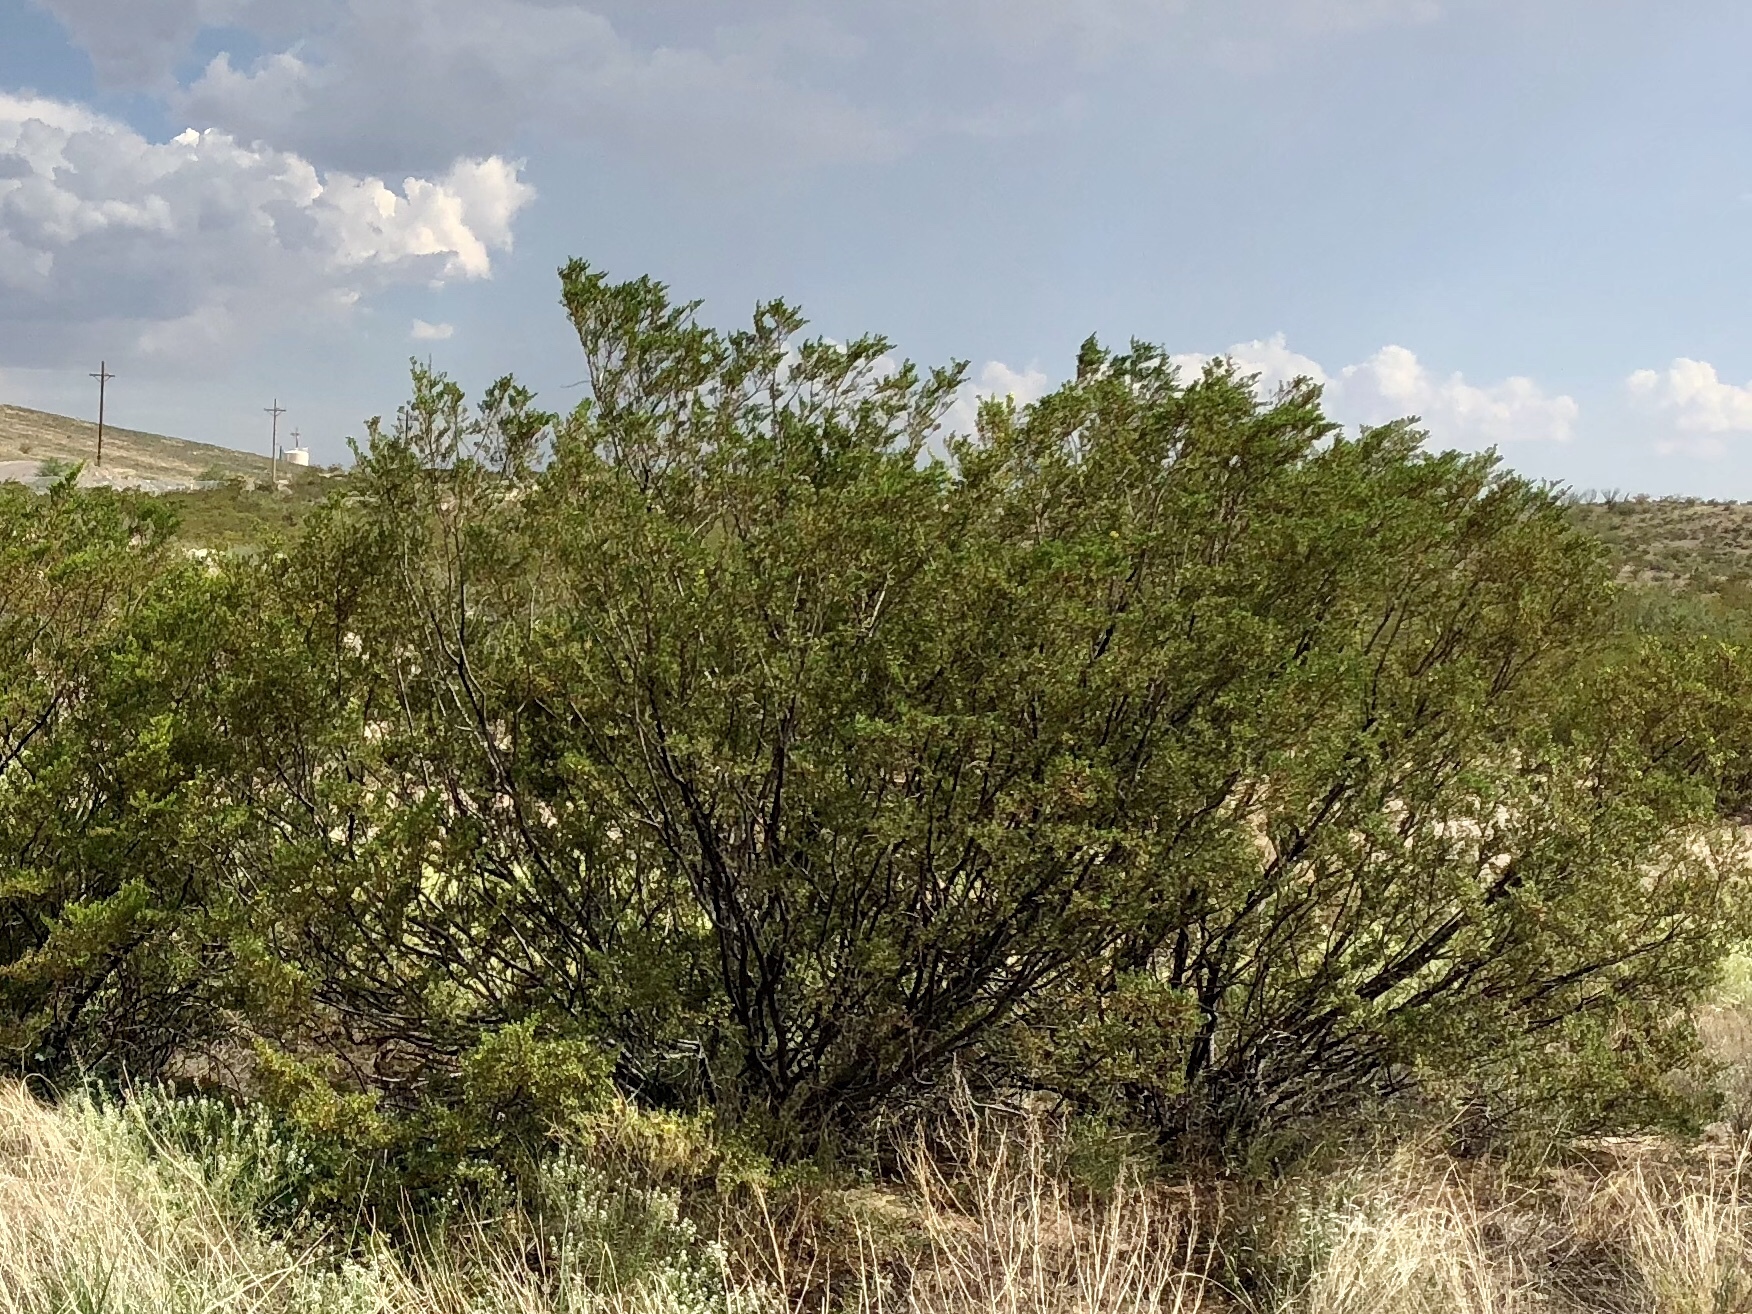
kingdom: Plantae
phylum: Tracheophyta
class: Magnoliopsida
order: Zygophyllales
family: Zygophyllaceae
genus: Larrea
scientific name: Larrea tridentata
